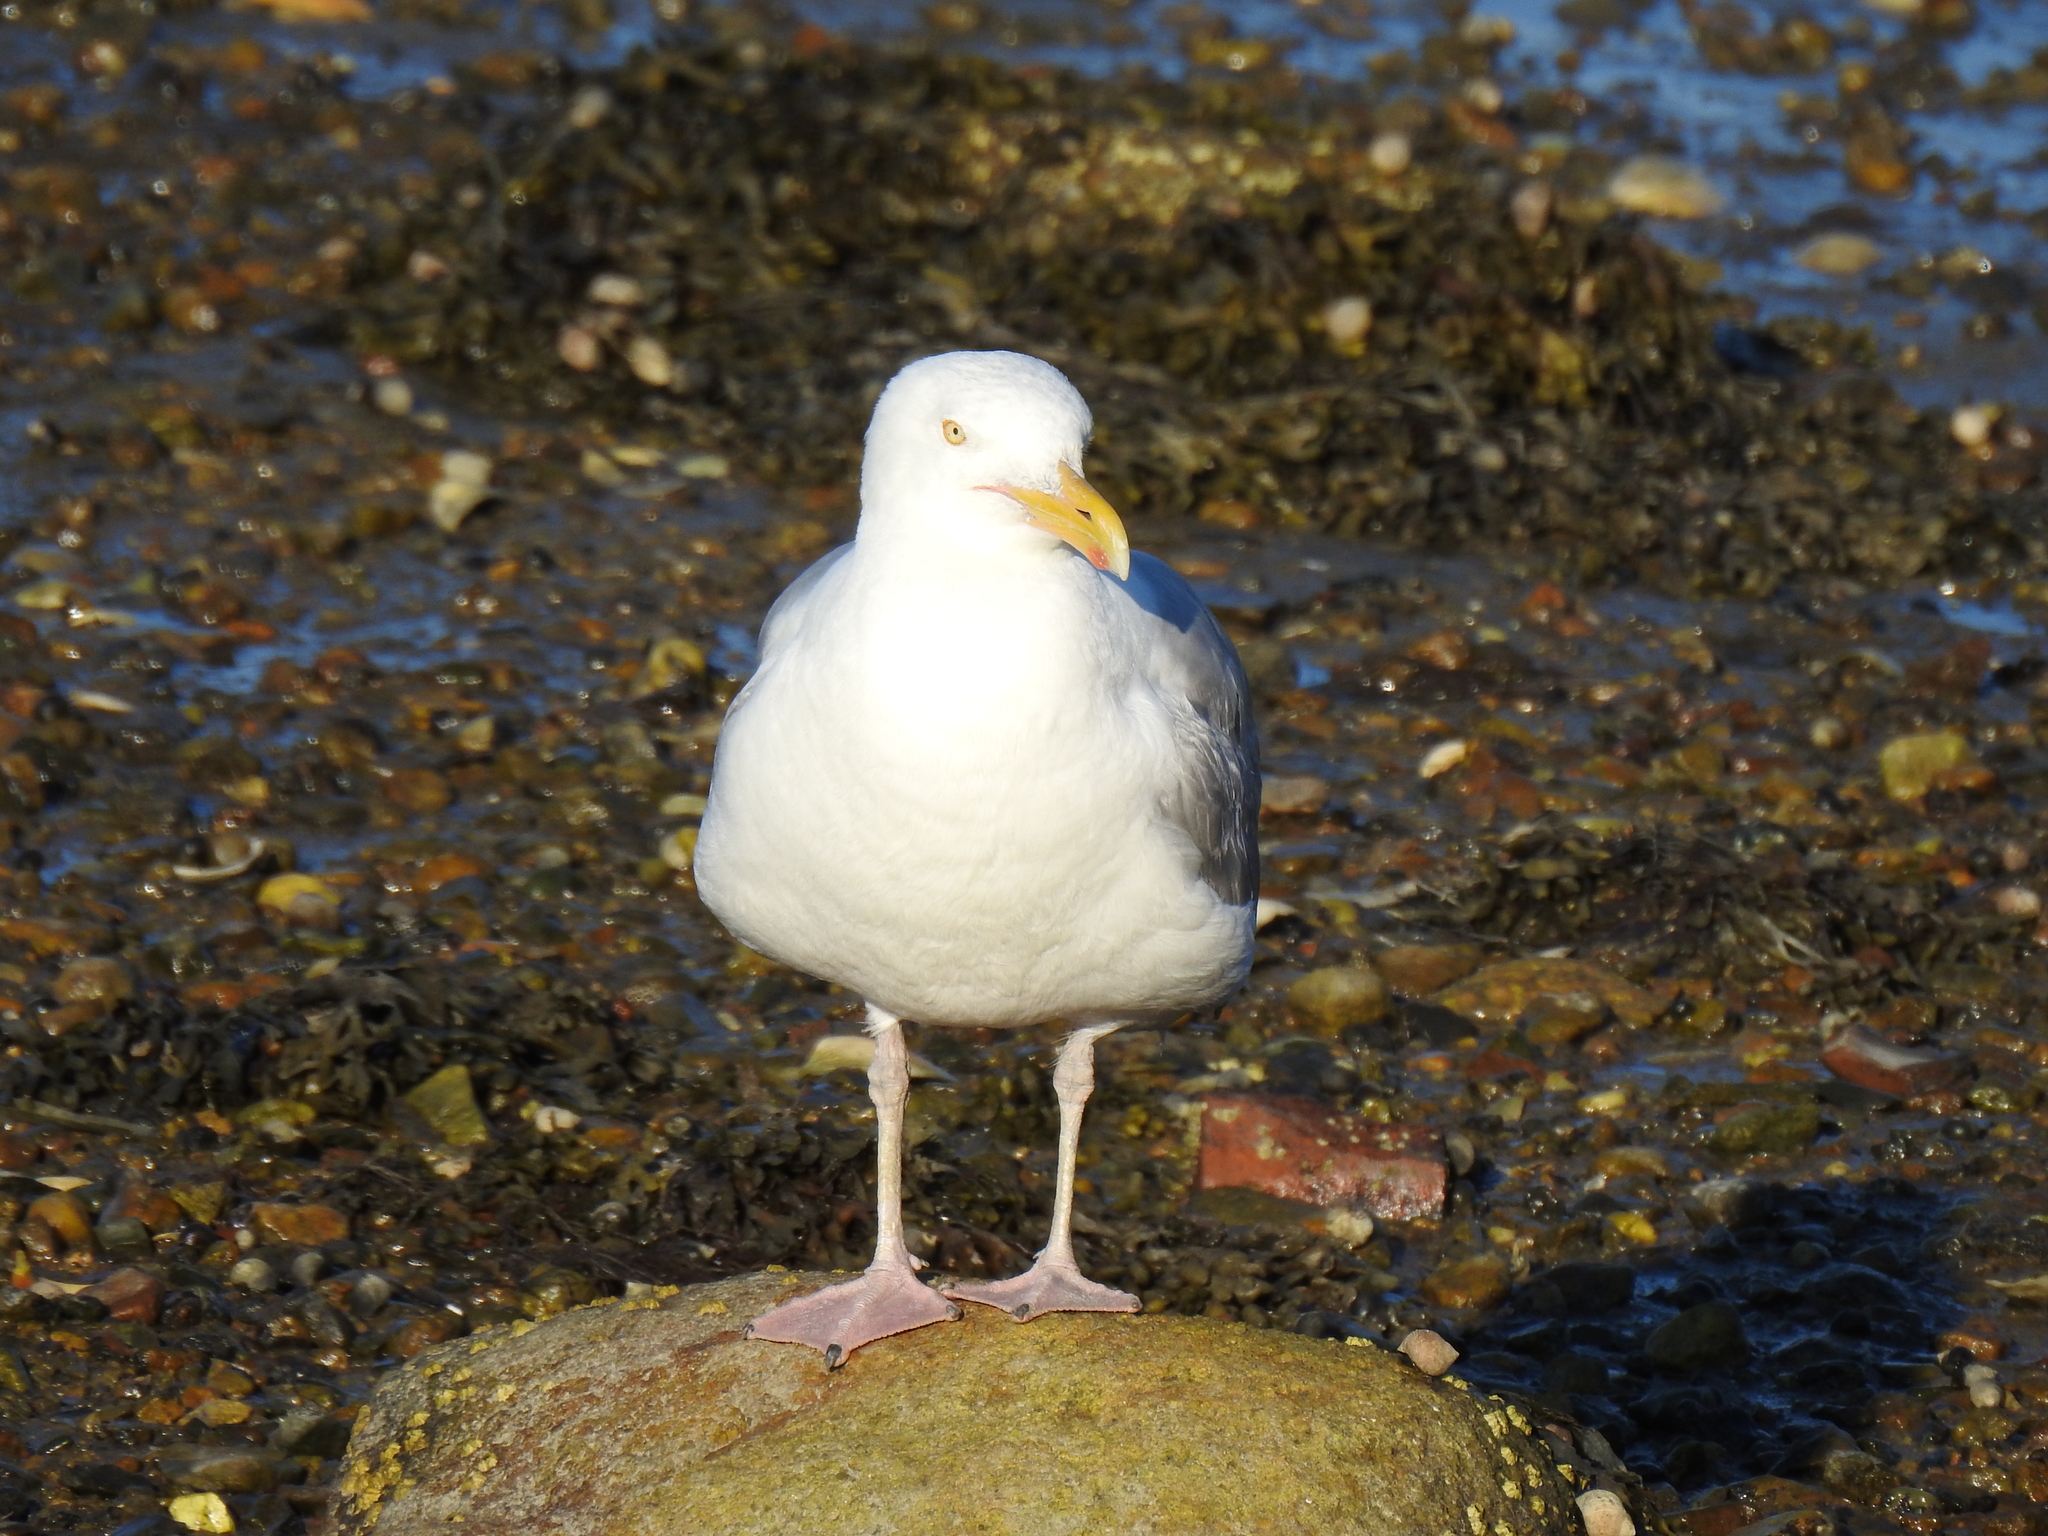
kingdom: Animalia
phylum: Chordata
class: Aves
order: Charadriiformes
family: Laridae
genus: Larus
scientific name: Larus argentatus
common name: Herring gull
